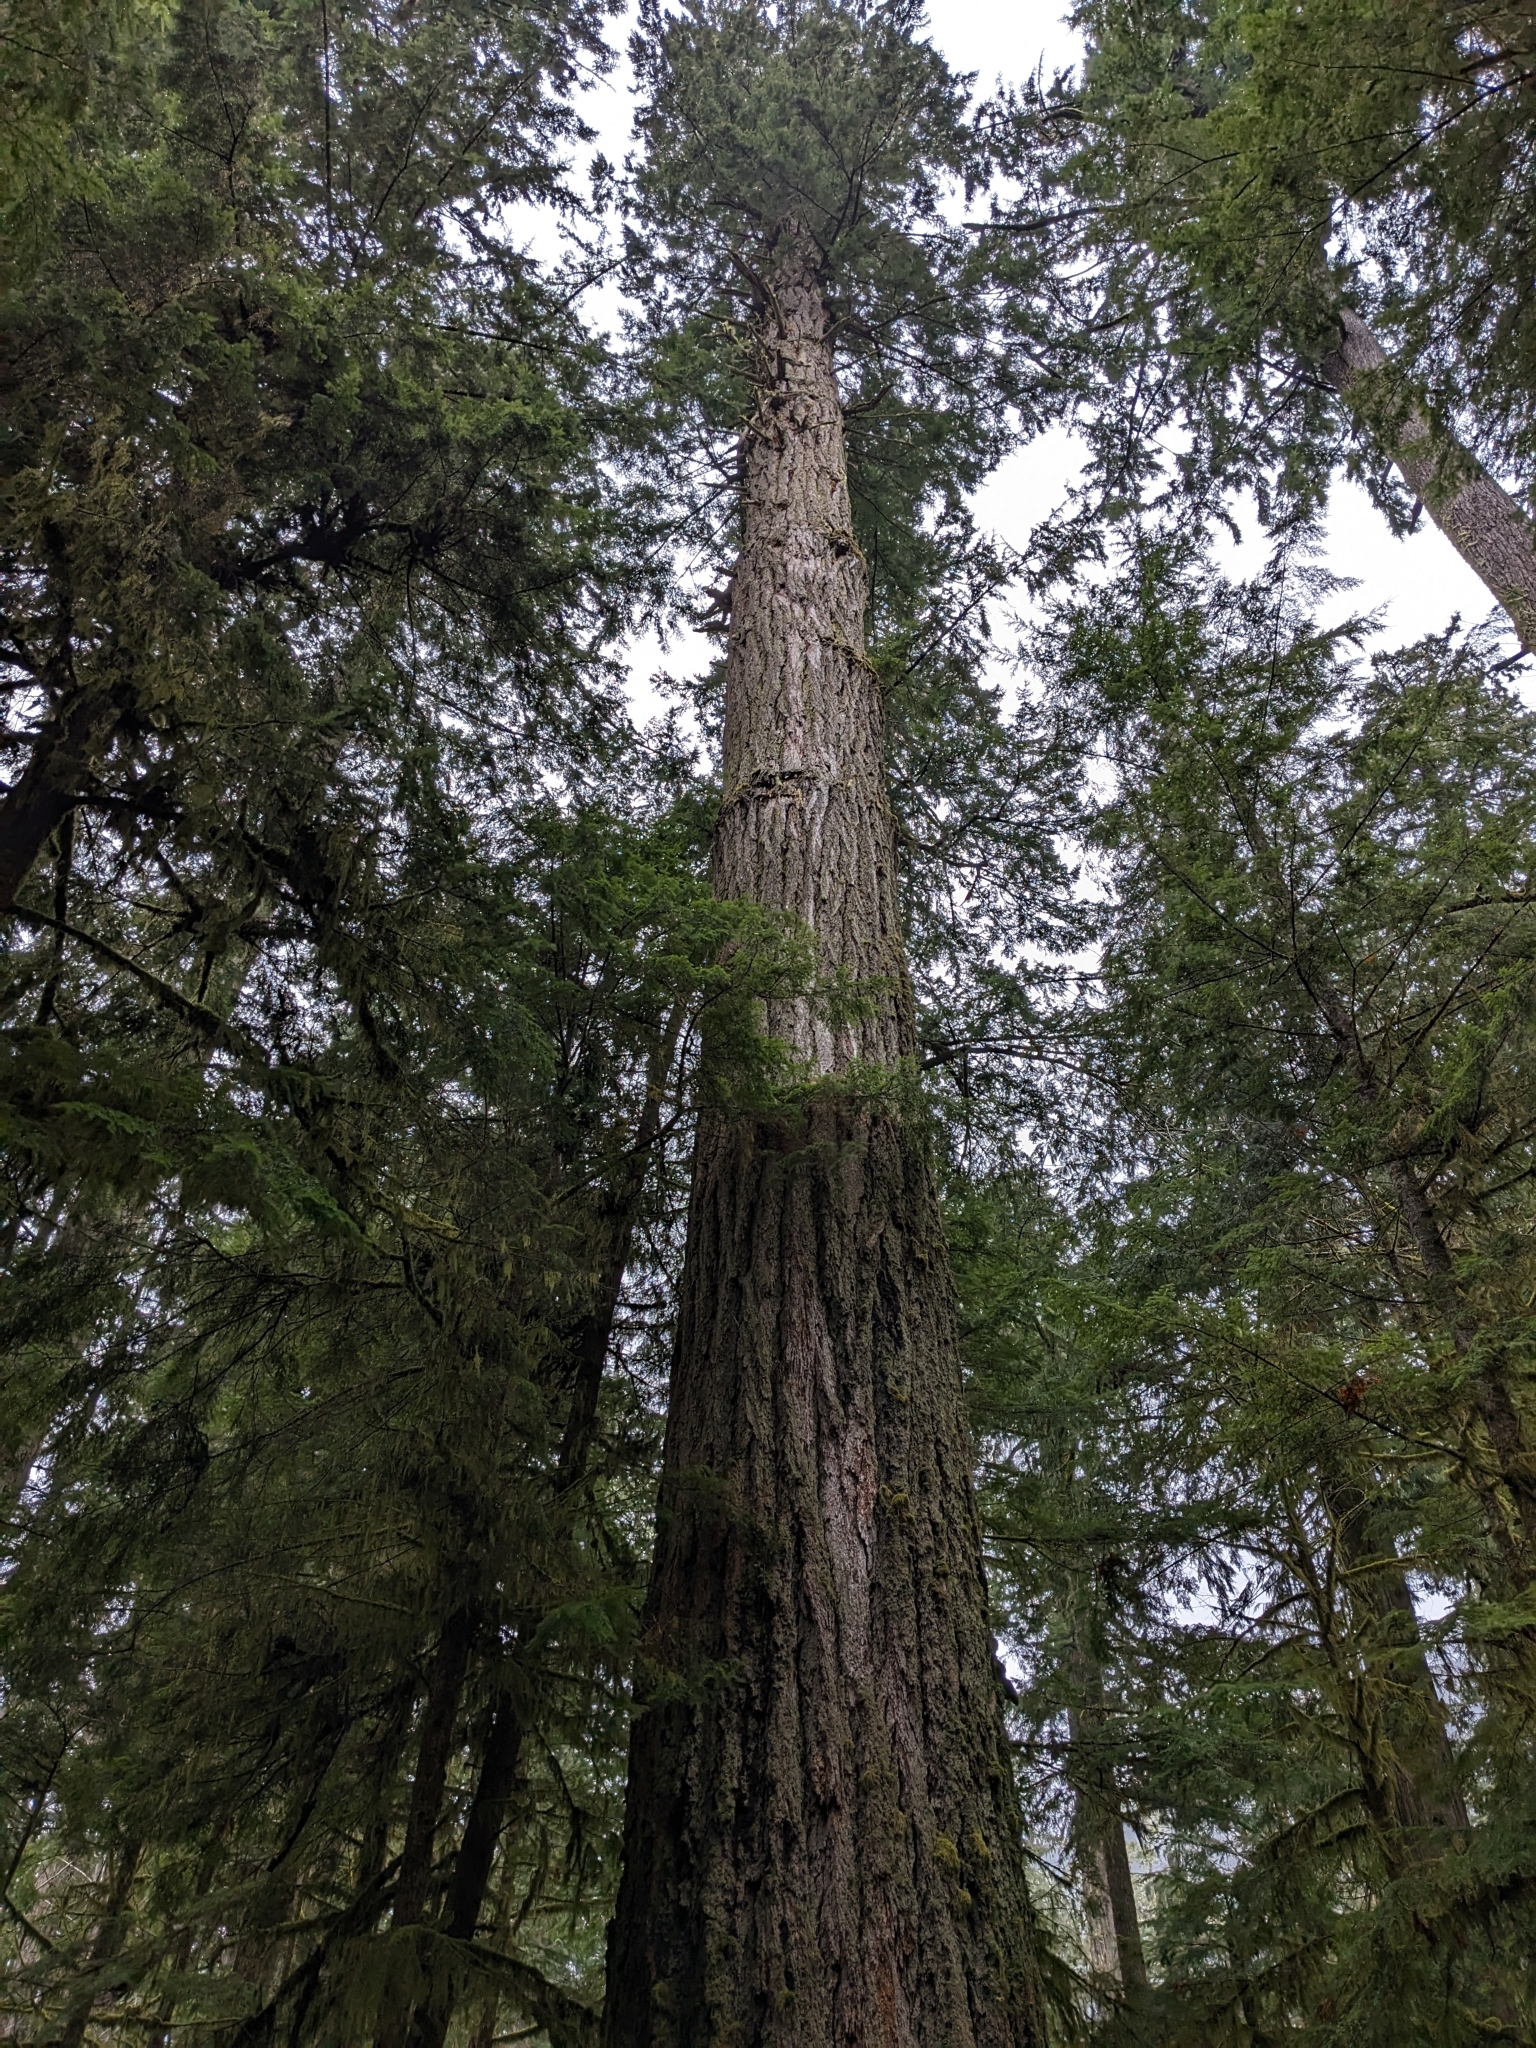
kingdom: Plantae
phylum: Tracheophyta
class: Pinopsida
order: Pinales
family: Pinaceae
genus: Pseudotsuga
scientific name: Pseudotsuga menziesii
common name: Douglas fir
